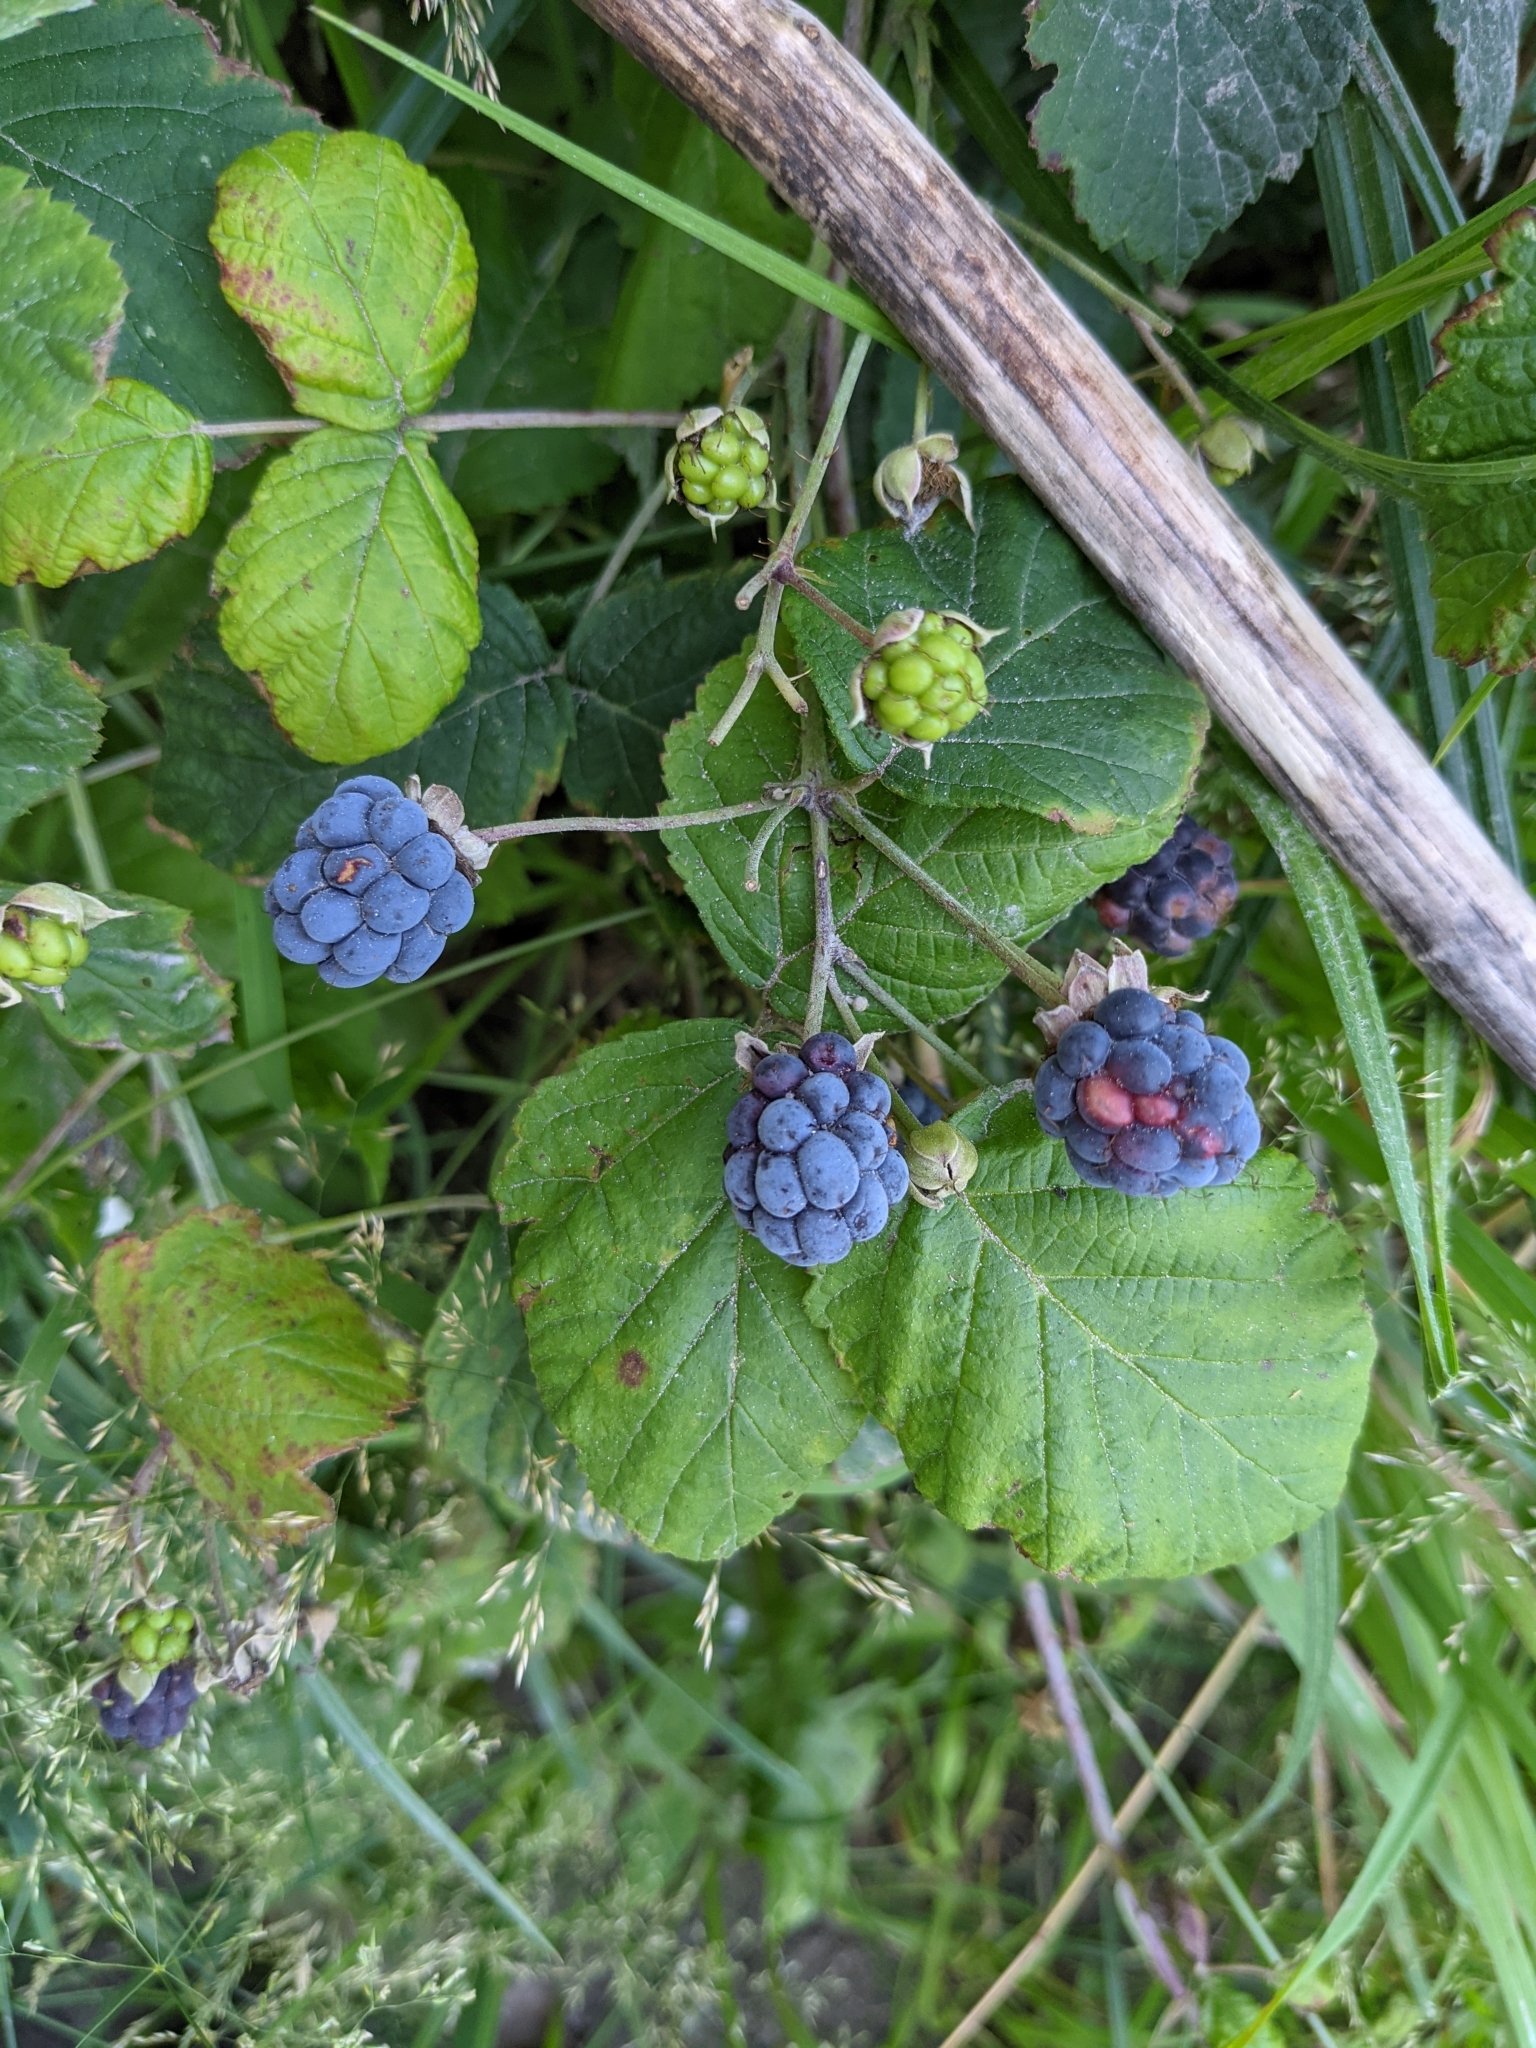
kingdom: Plantae
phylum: Tracheophyta
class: Magnoliopsida
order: Rosales
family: Rosaceae
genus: Rubus
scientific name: Rubus caesius
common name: Dewberry
